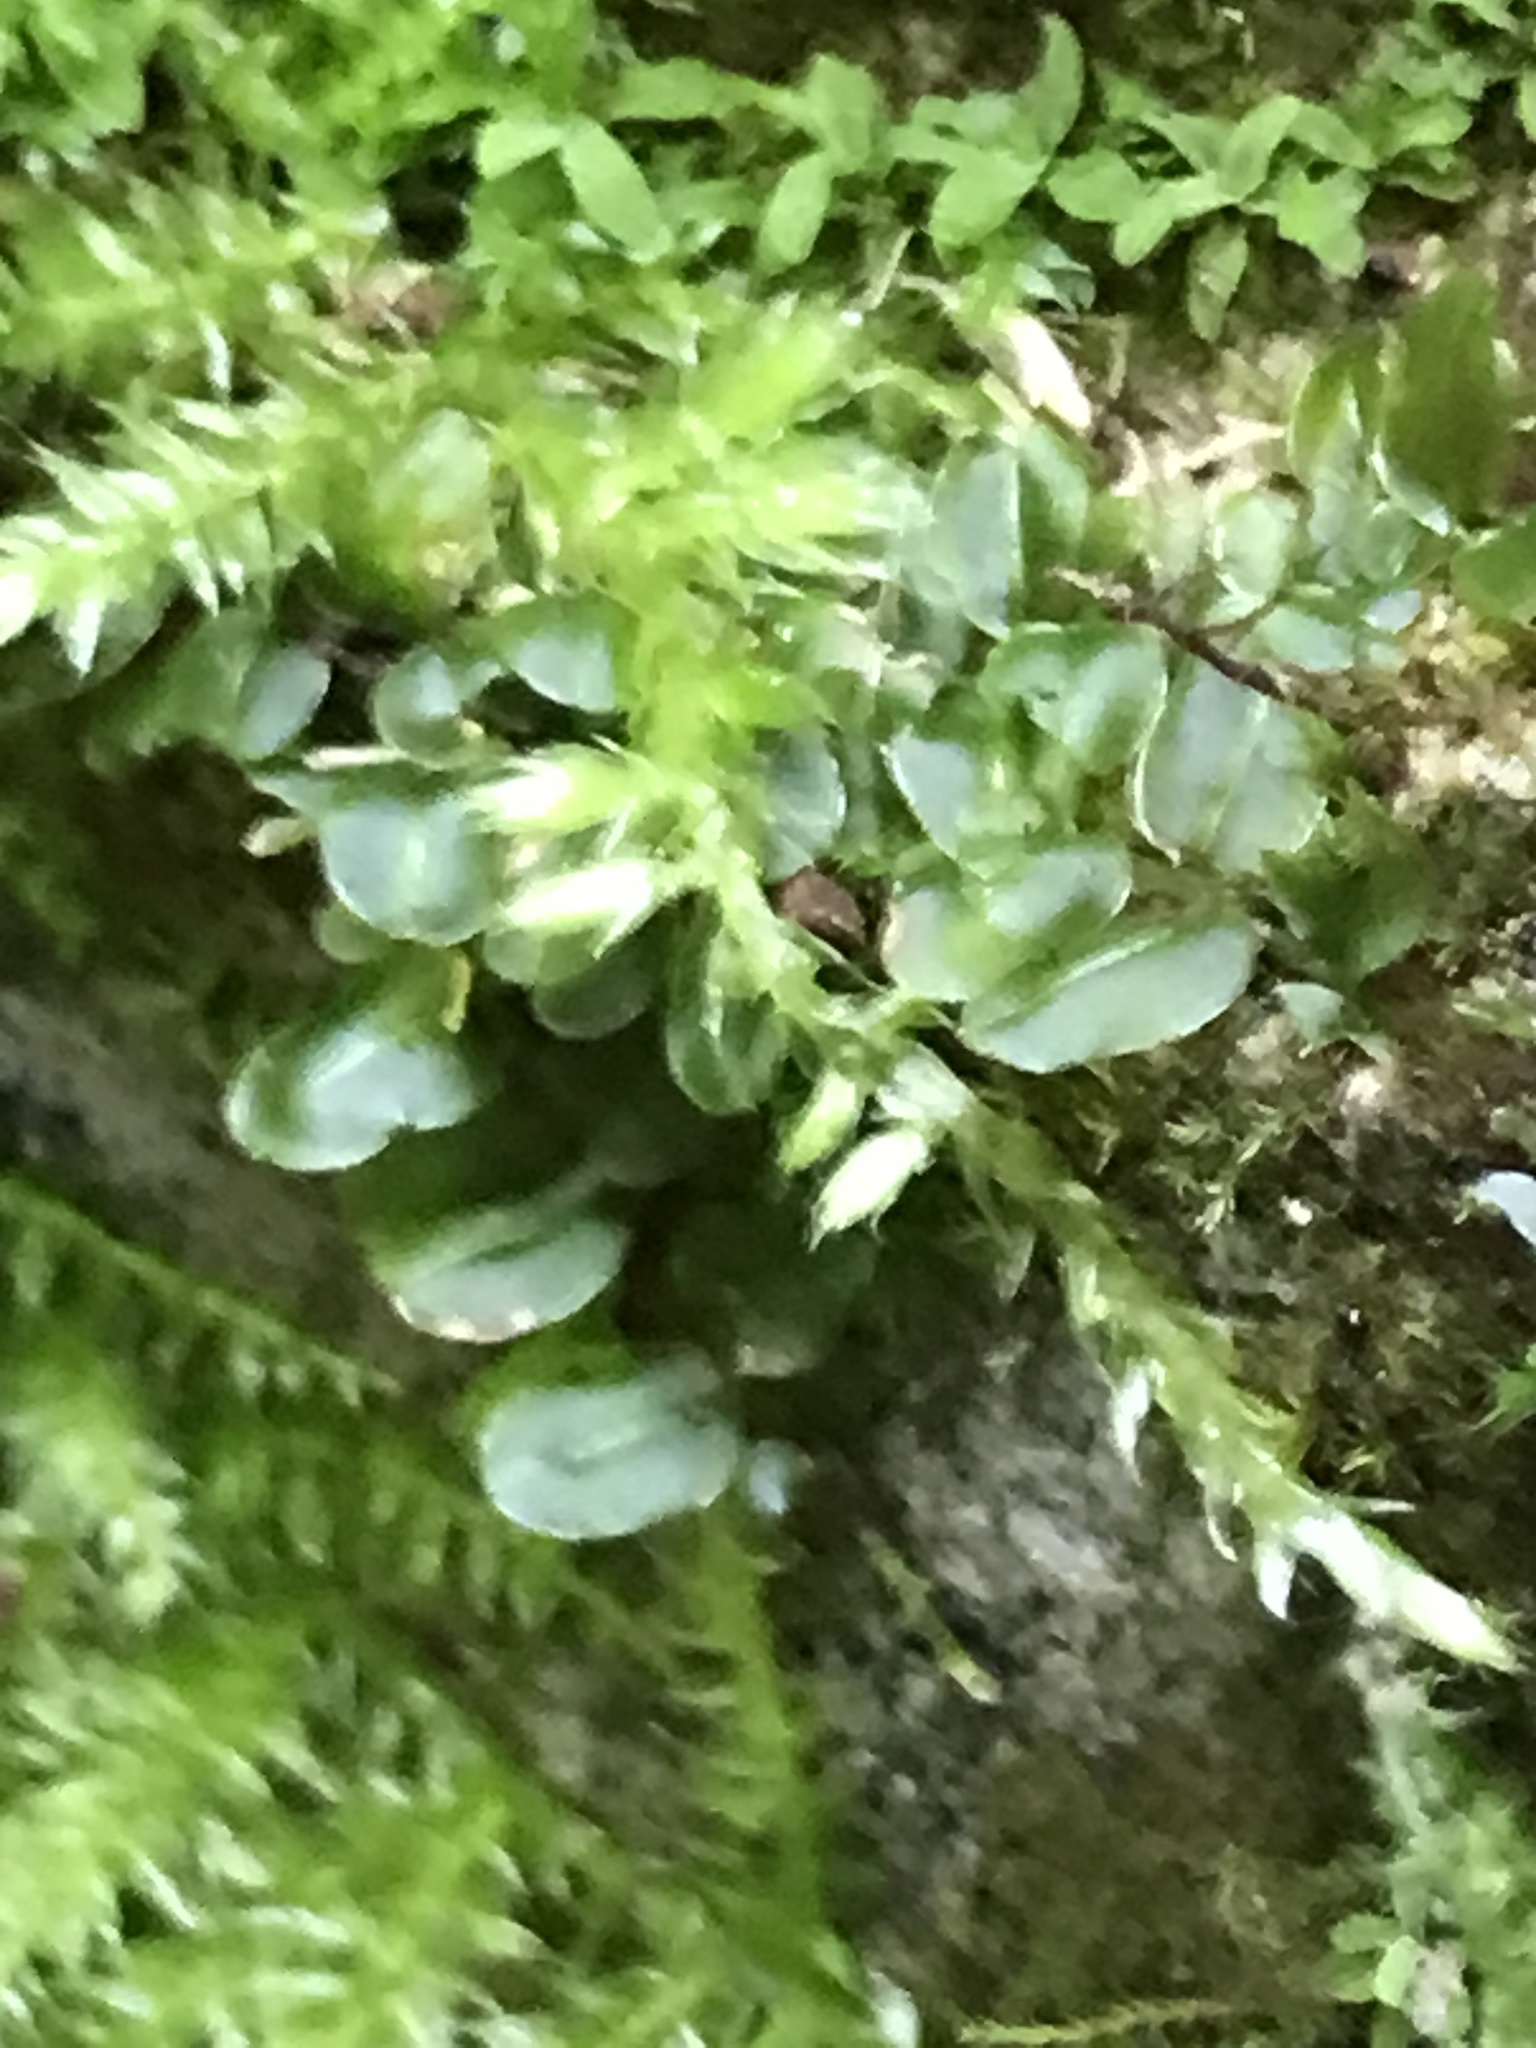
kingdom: Plantae
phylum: Bryophyta
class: Bryopsida
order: Bryales
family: Mniaceae
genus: Plagiomnium
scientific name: Plagiomnium rostratum
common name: Long-beaked leafy moss
